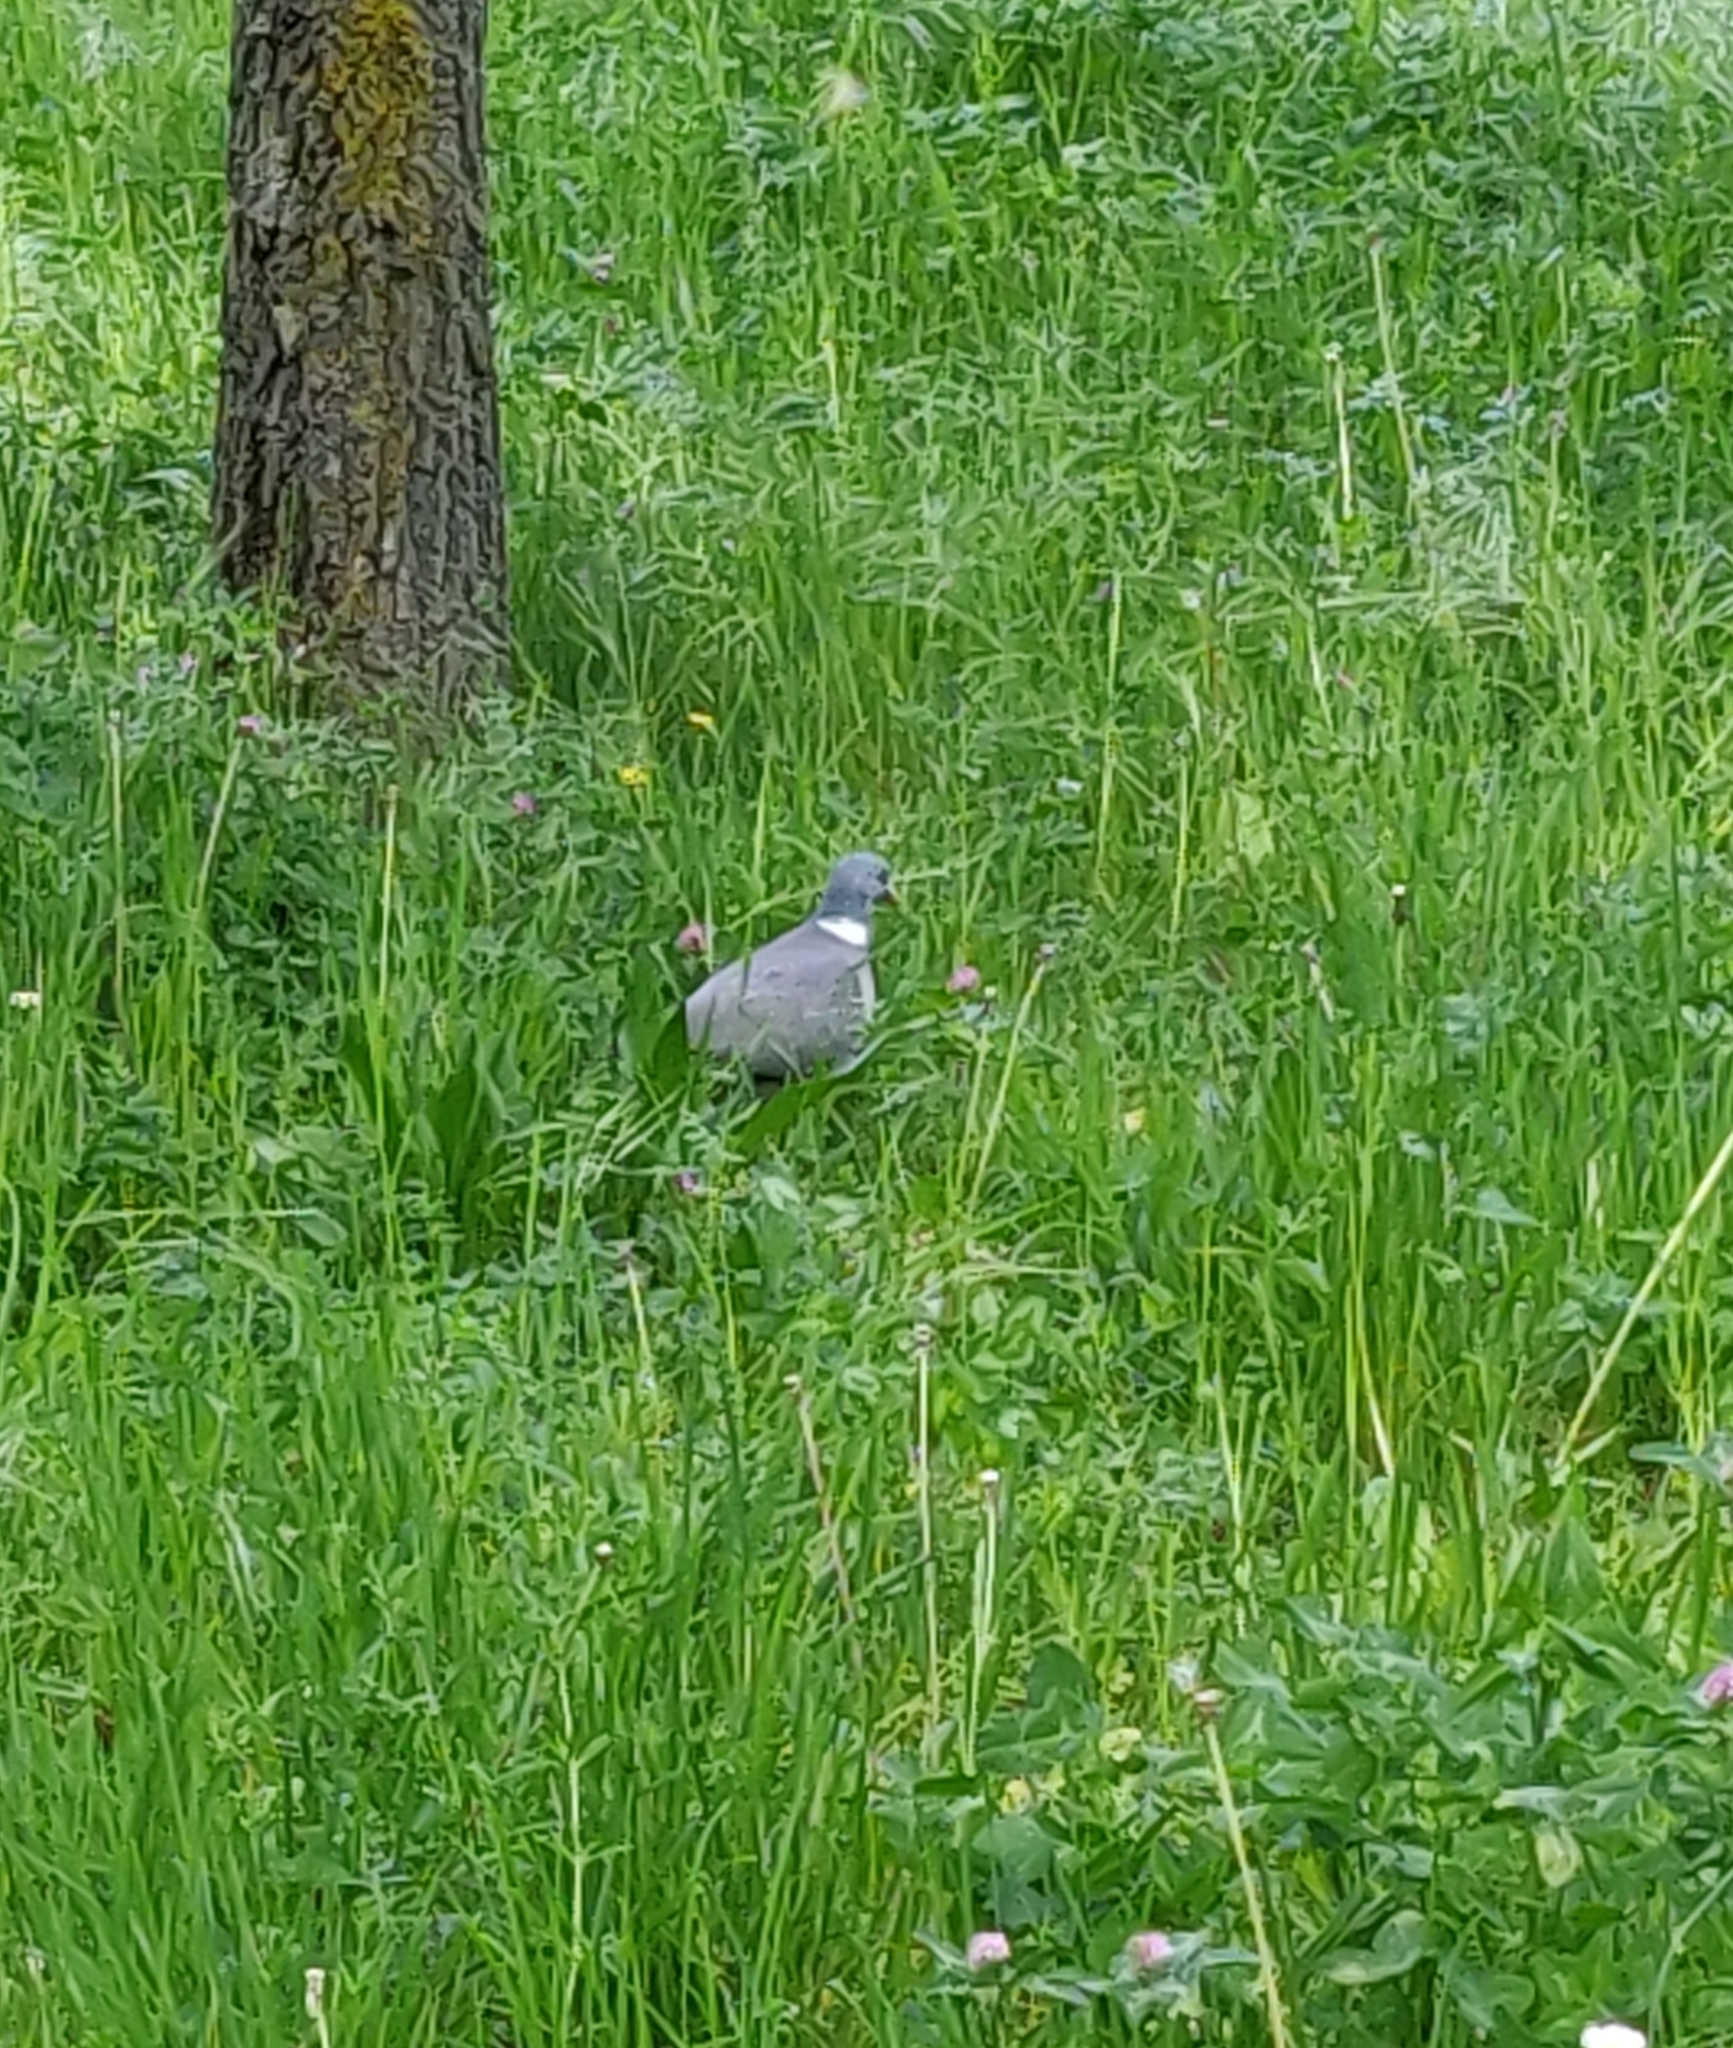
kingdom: Animalia
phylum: Chordata
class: Aves
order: Columbiformes
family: Columbidae
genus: Columba
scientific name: Columba palumbus
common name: Common wood pigeon
